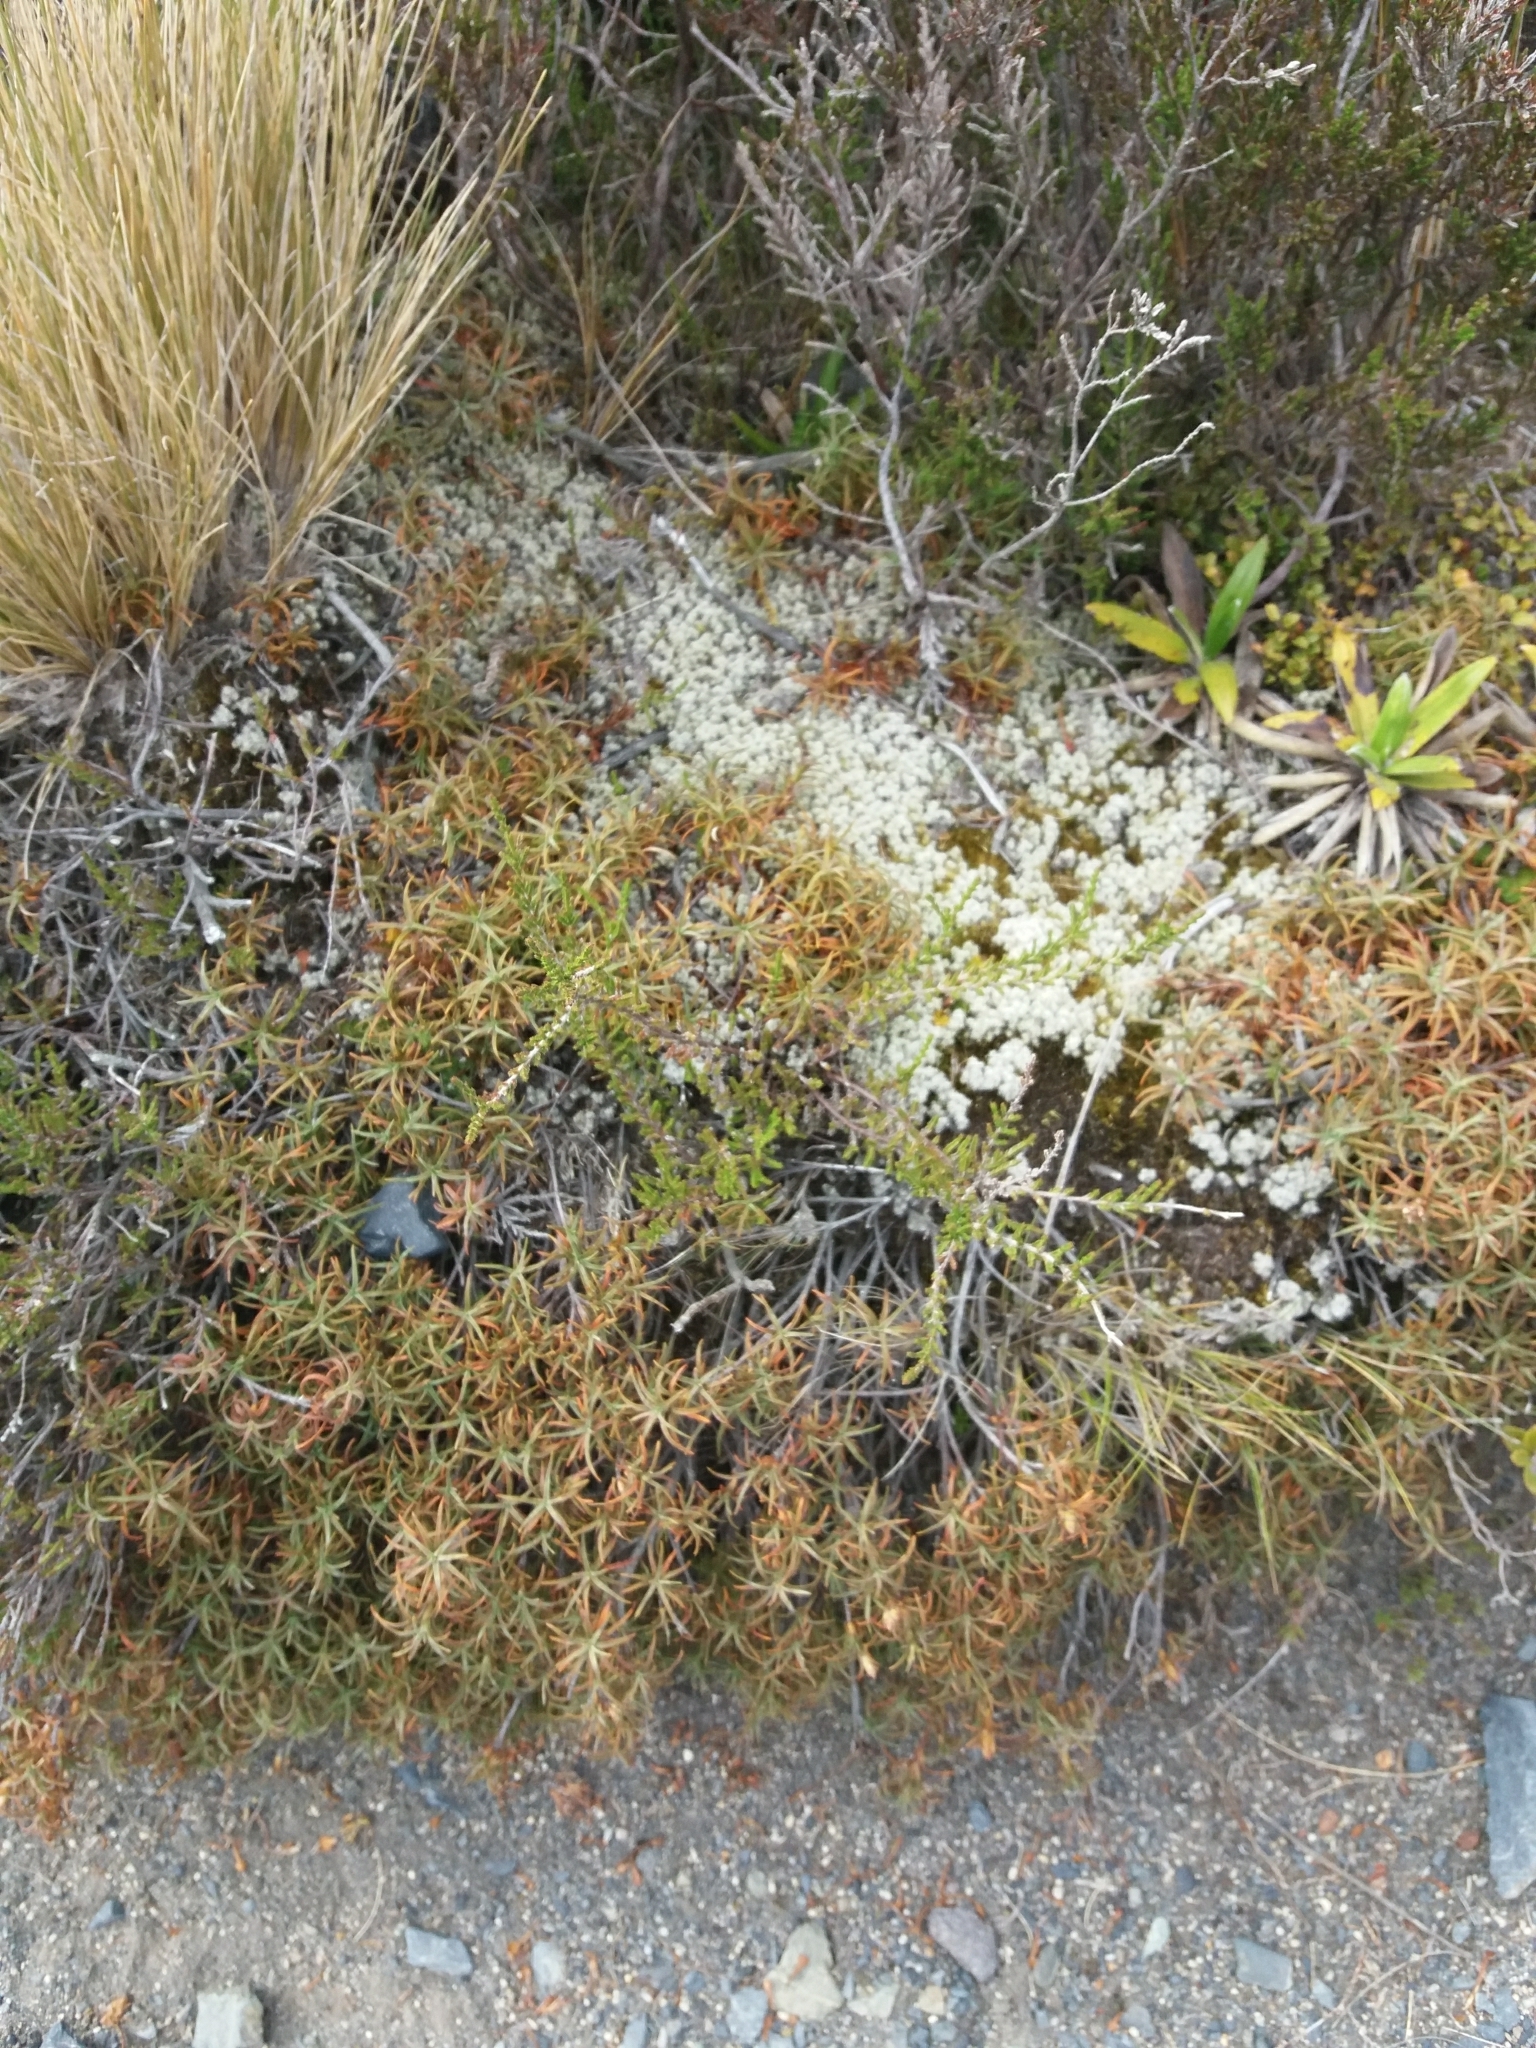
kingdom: Fungi
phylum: Ascomycota
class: Lecanoromycetes
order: Lecanorales
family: Cladoniaceae
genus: Pulchrocladia
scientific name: Pulchrocladia retipora
